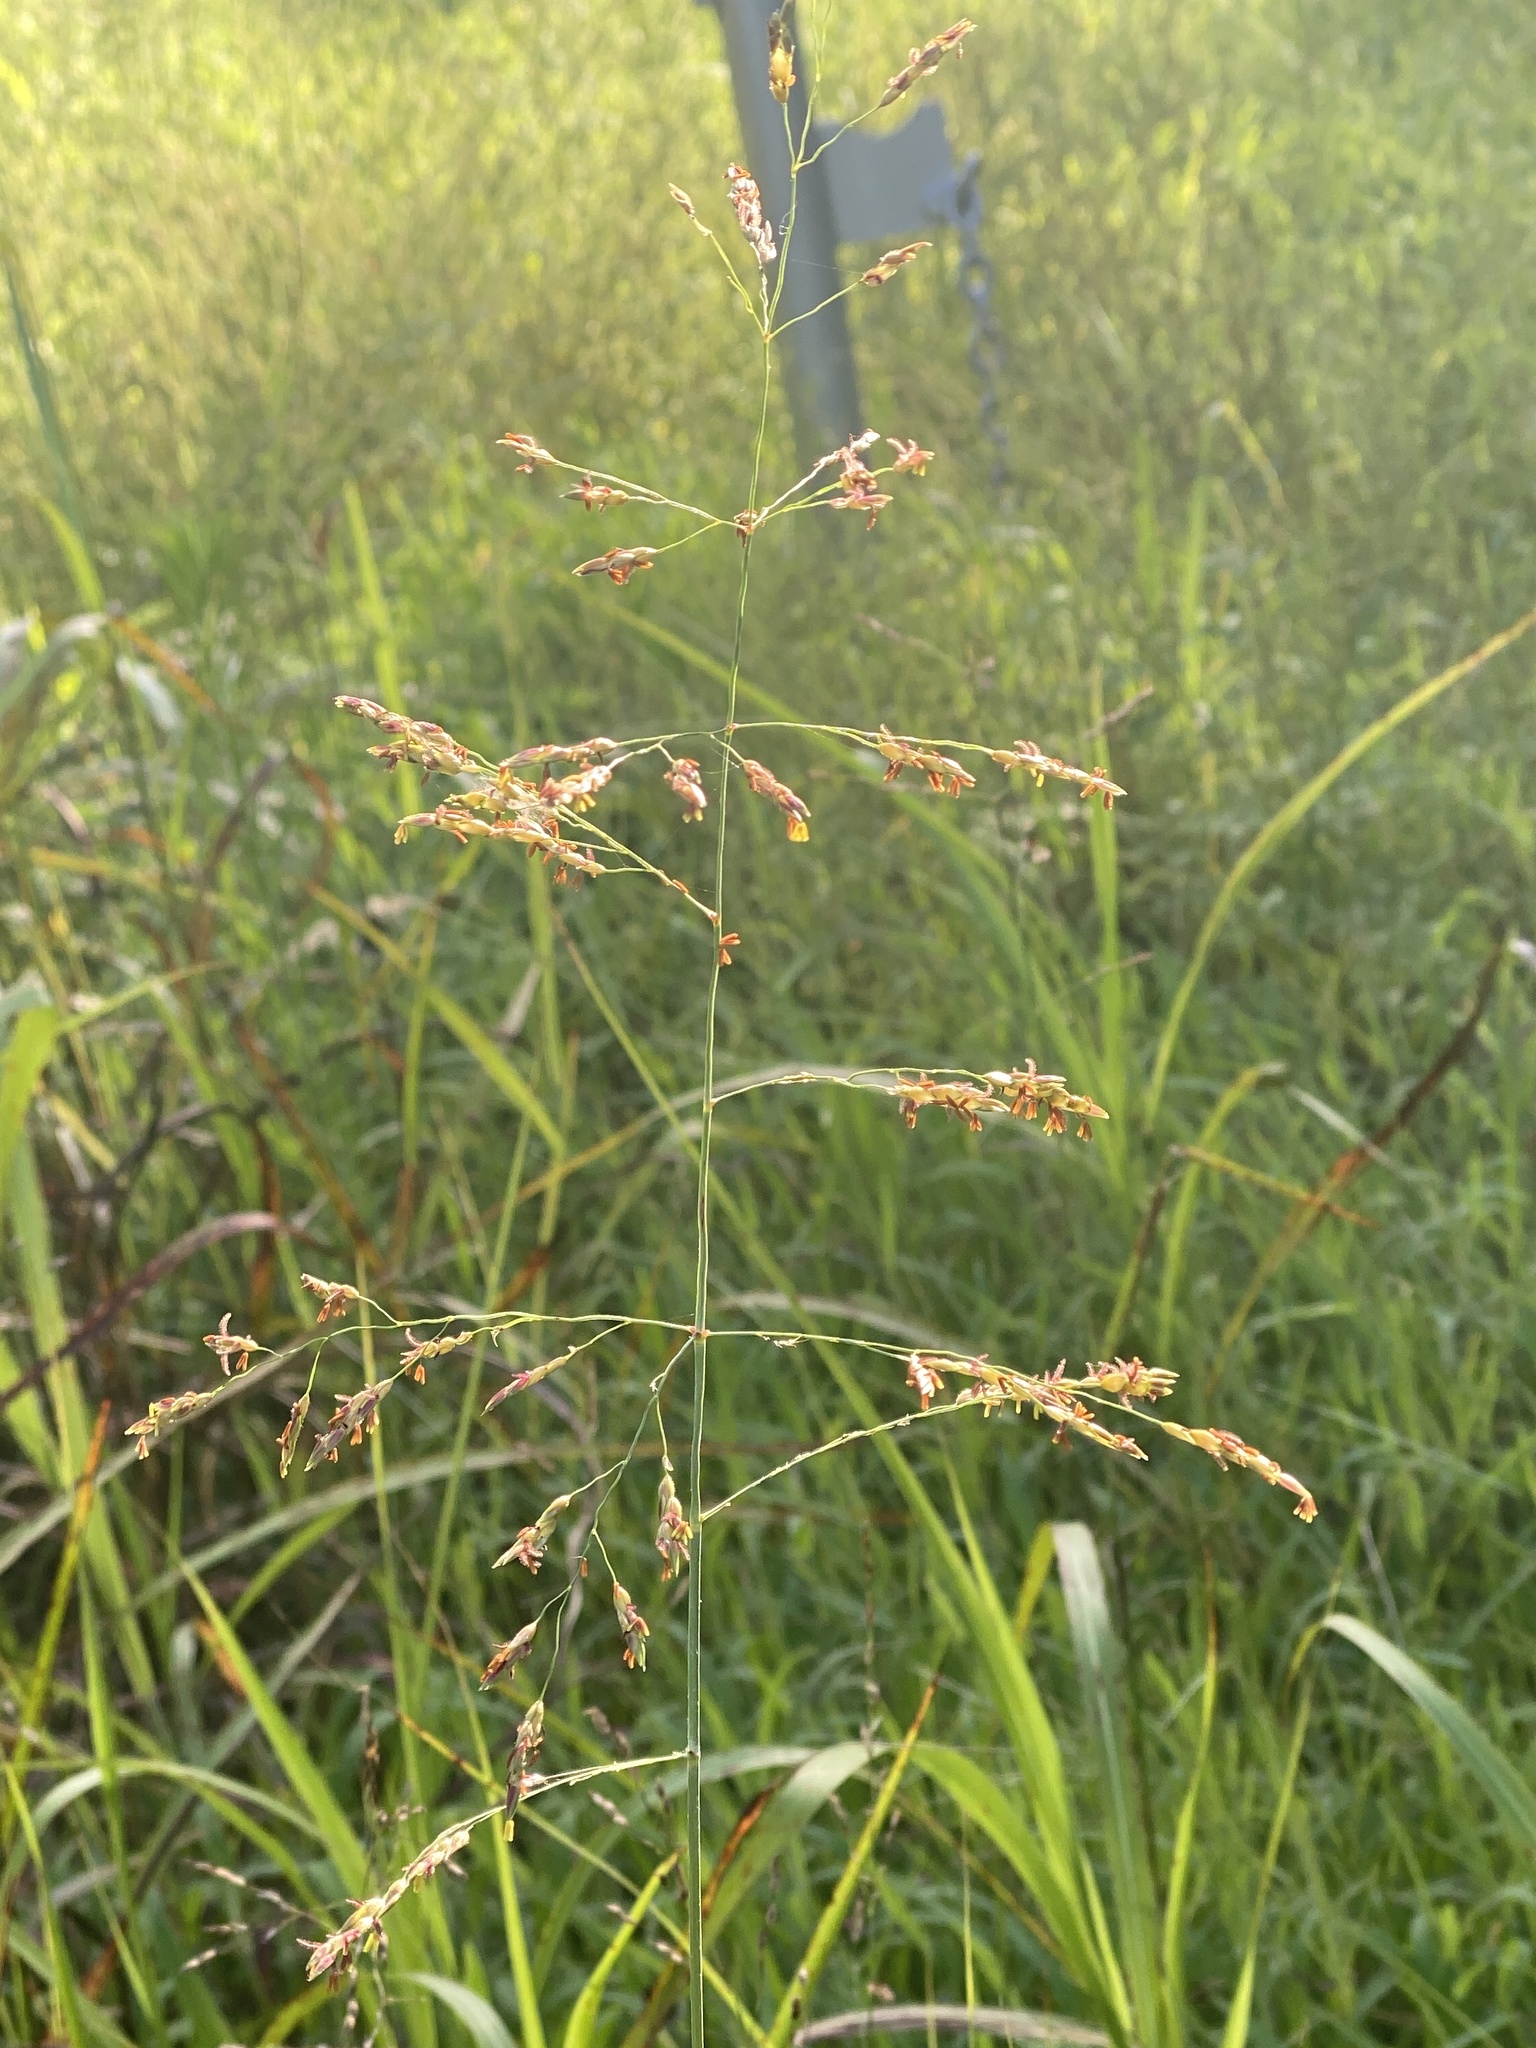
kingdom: Plantae
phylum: Tracheophyta
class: Liliopsida
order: Poales
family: Poaceae
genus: Sorghum
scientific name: Sorghum halepense
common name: Johnson-grass
